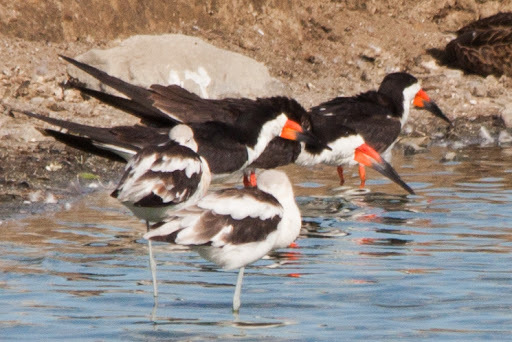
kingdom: Animalia
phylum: Chordata
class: Aves
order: Charadriiformes
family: Laridae
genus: Rynchops
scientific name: Rynchops niger
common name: Black skimmer
